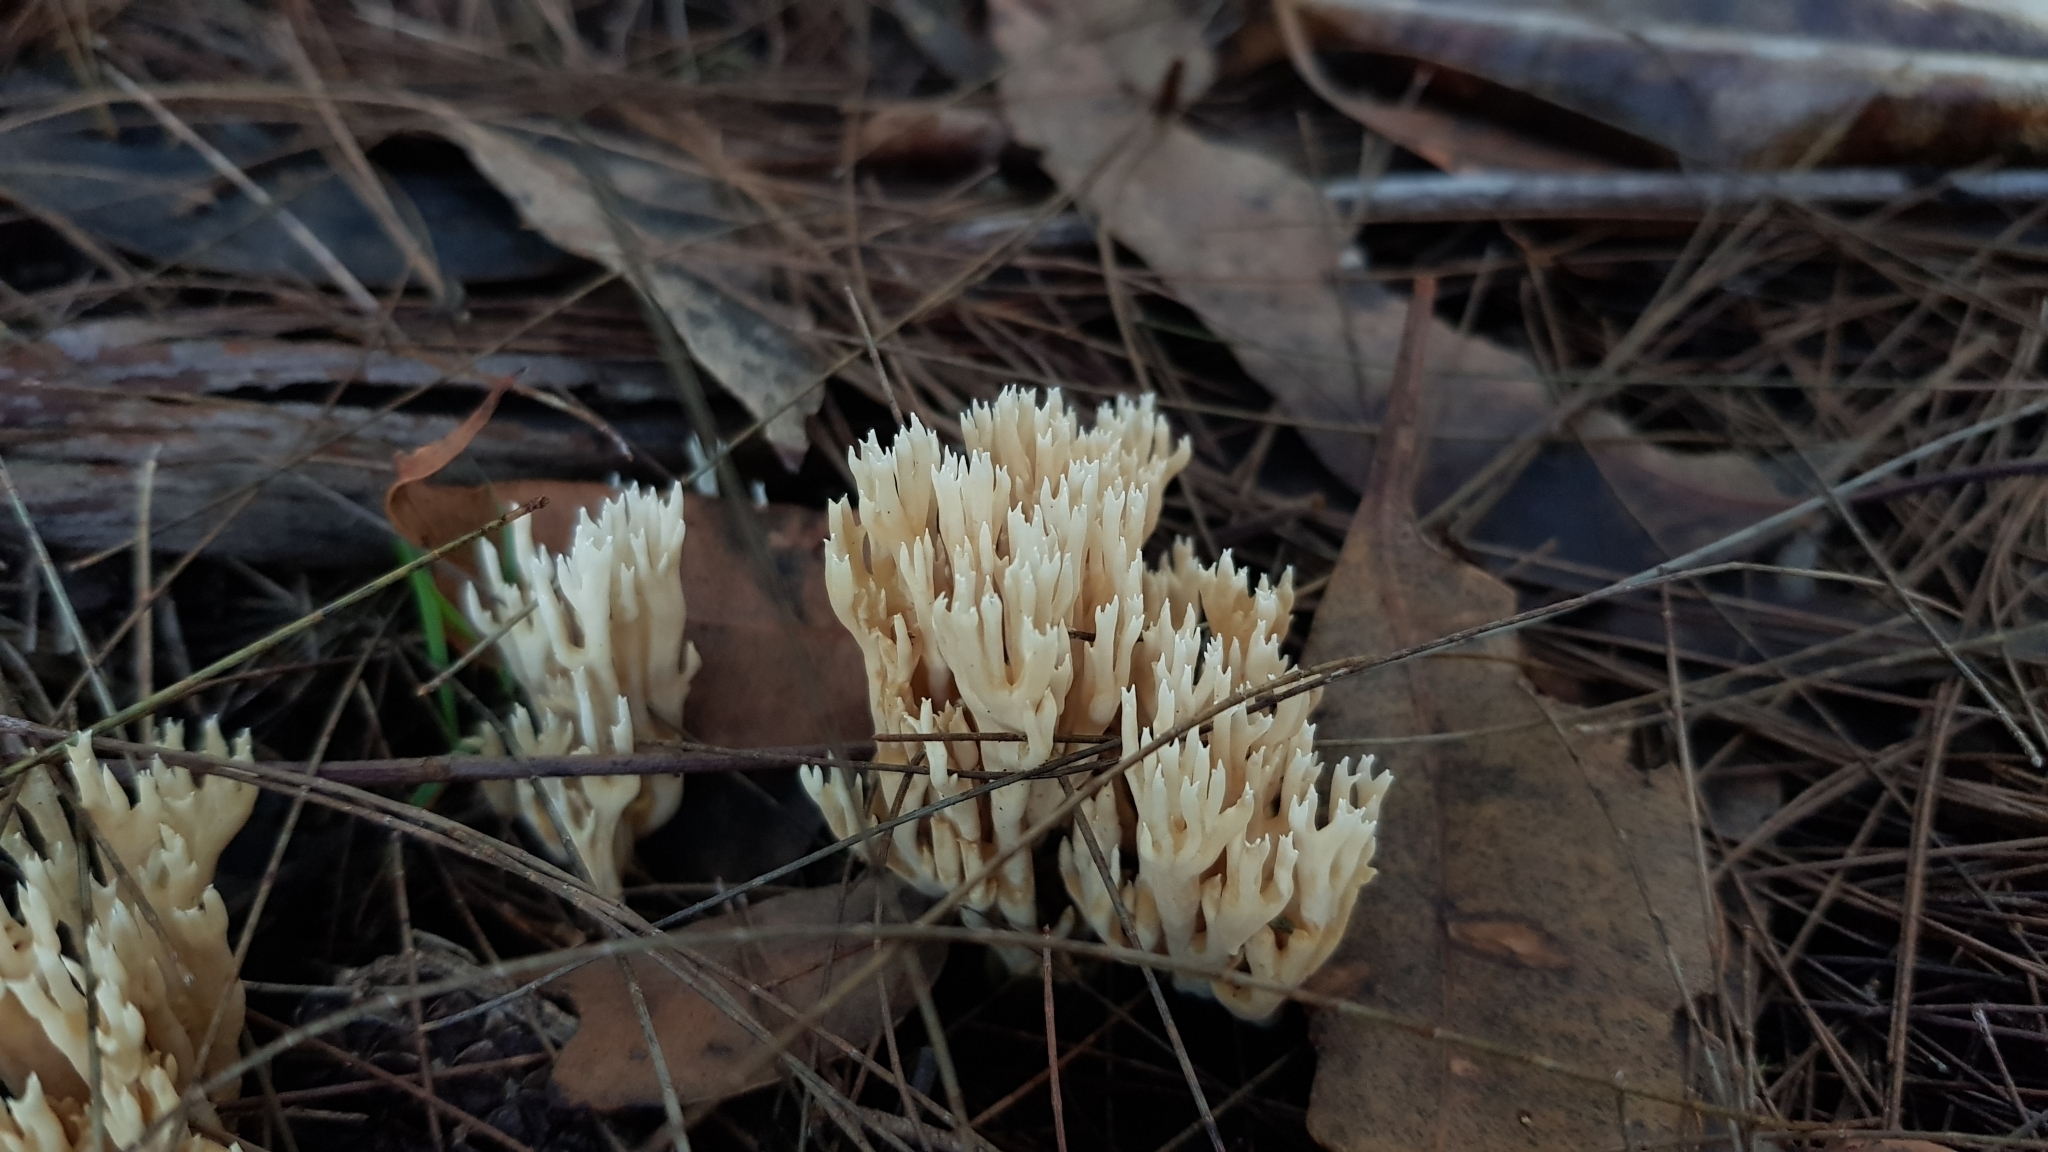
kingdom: Fungi
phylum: Basidiomycota
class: Agaricomycetes
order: Gomphales
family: Gomphaceae
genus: Ramaria
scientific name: Ramaria filicicola
